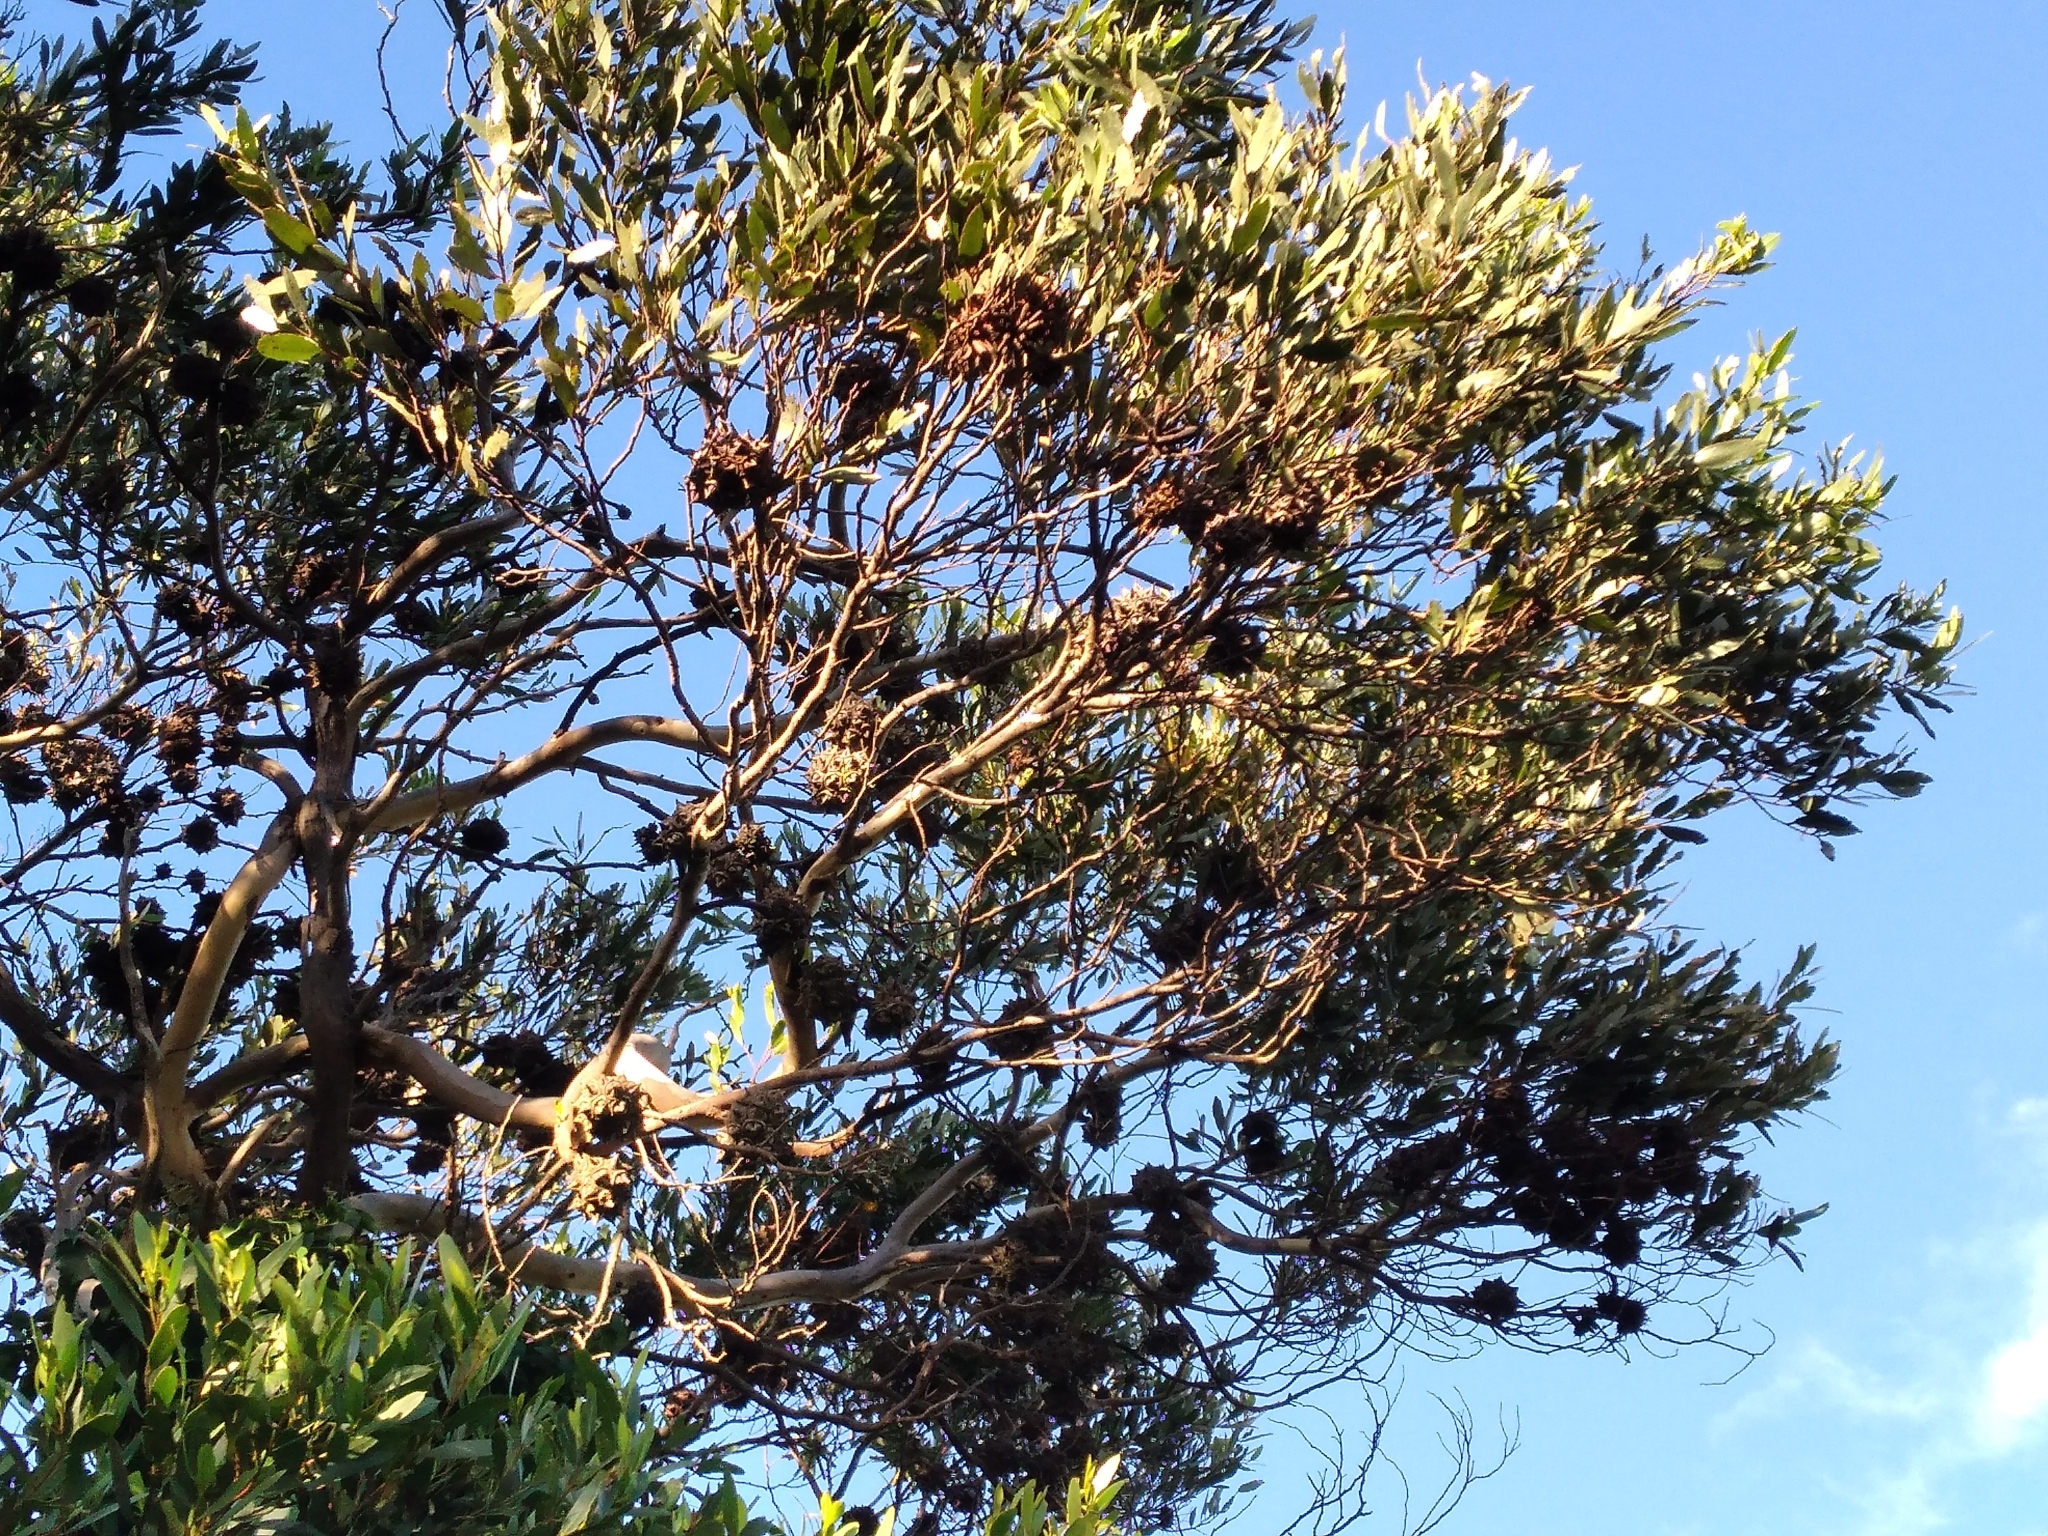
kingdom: Plantae
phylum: Tracheophyta
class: Magnoliopsida
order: Myrtales
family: Myrtaceae
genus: Eucalyptus
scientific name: Eucalyptus conferruminata
